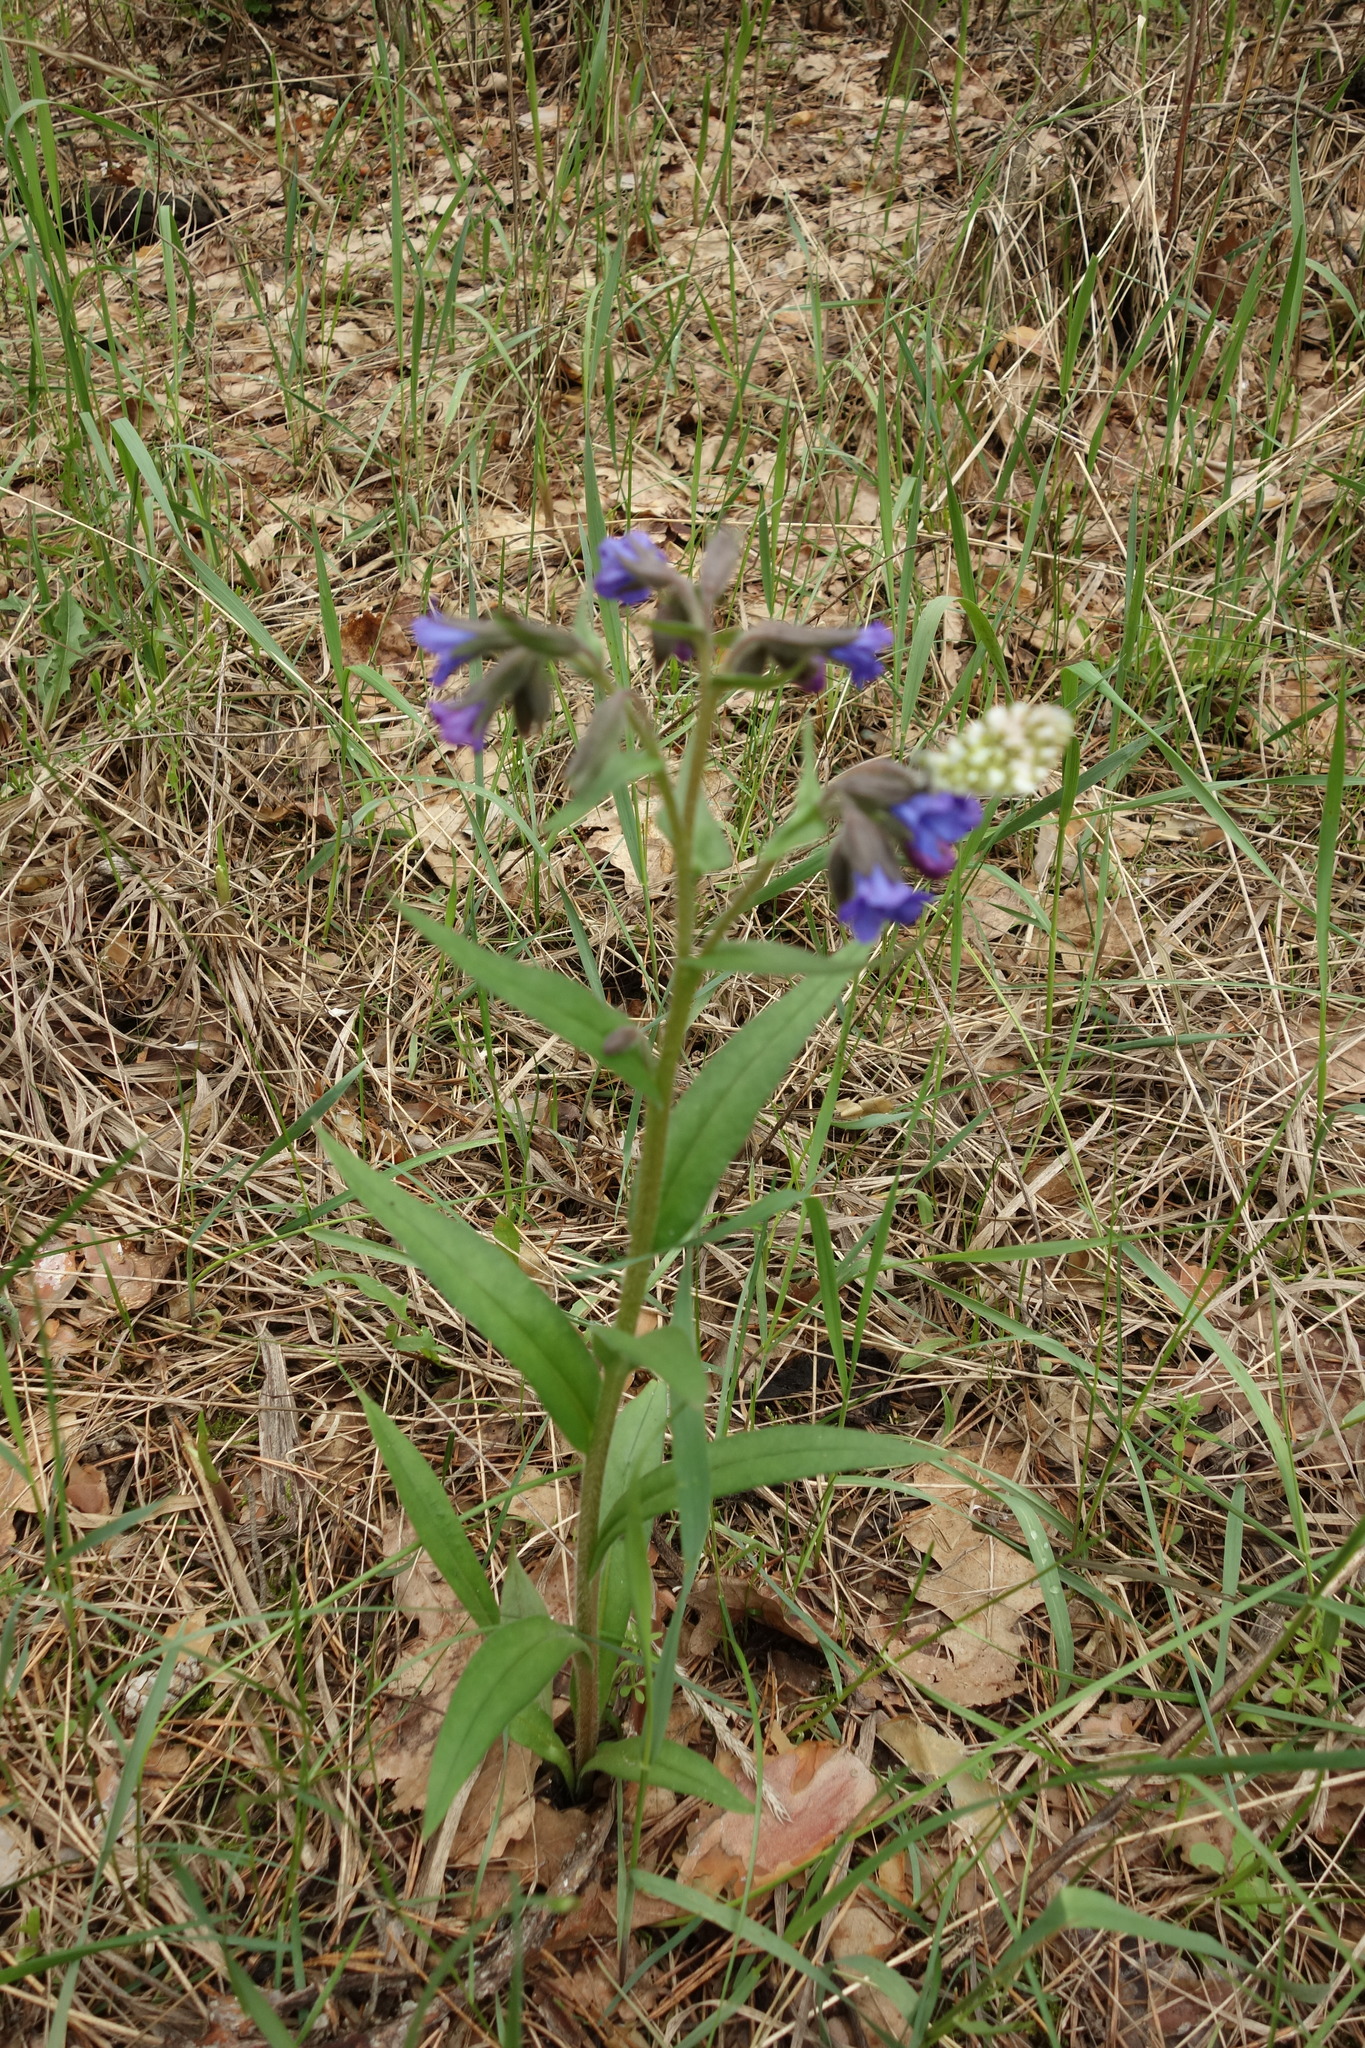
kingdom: Plantae
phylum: Tracheophyta
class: Magnoliopsida
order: Boraginales
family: Boraginaceae
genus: Pulmonaria
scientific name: Pulmonaria angustifolia
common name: Blue cowslip
